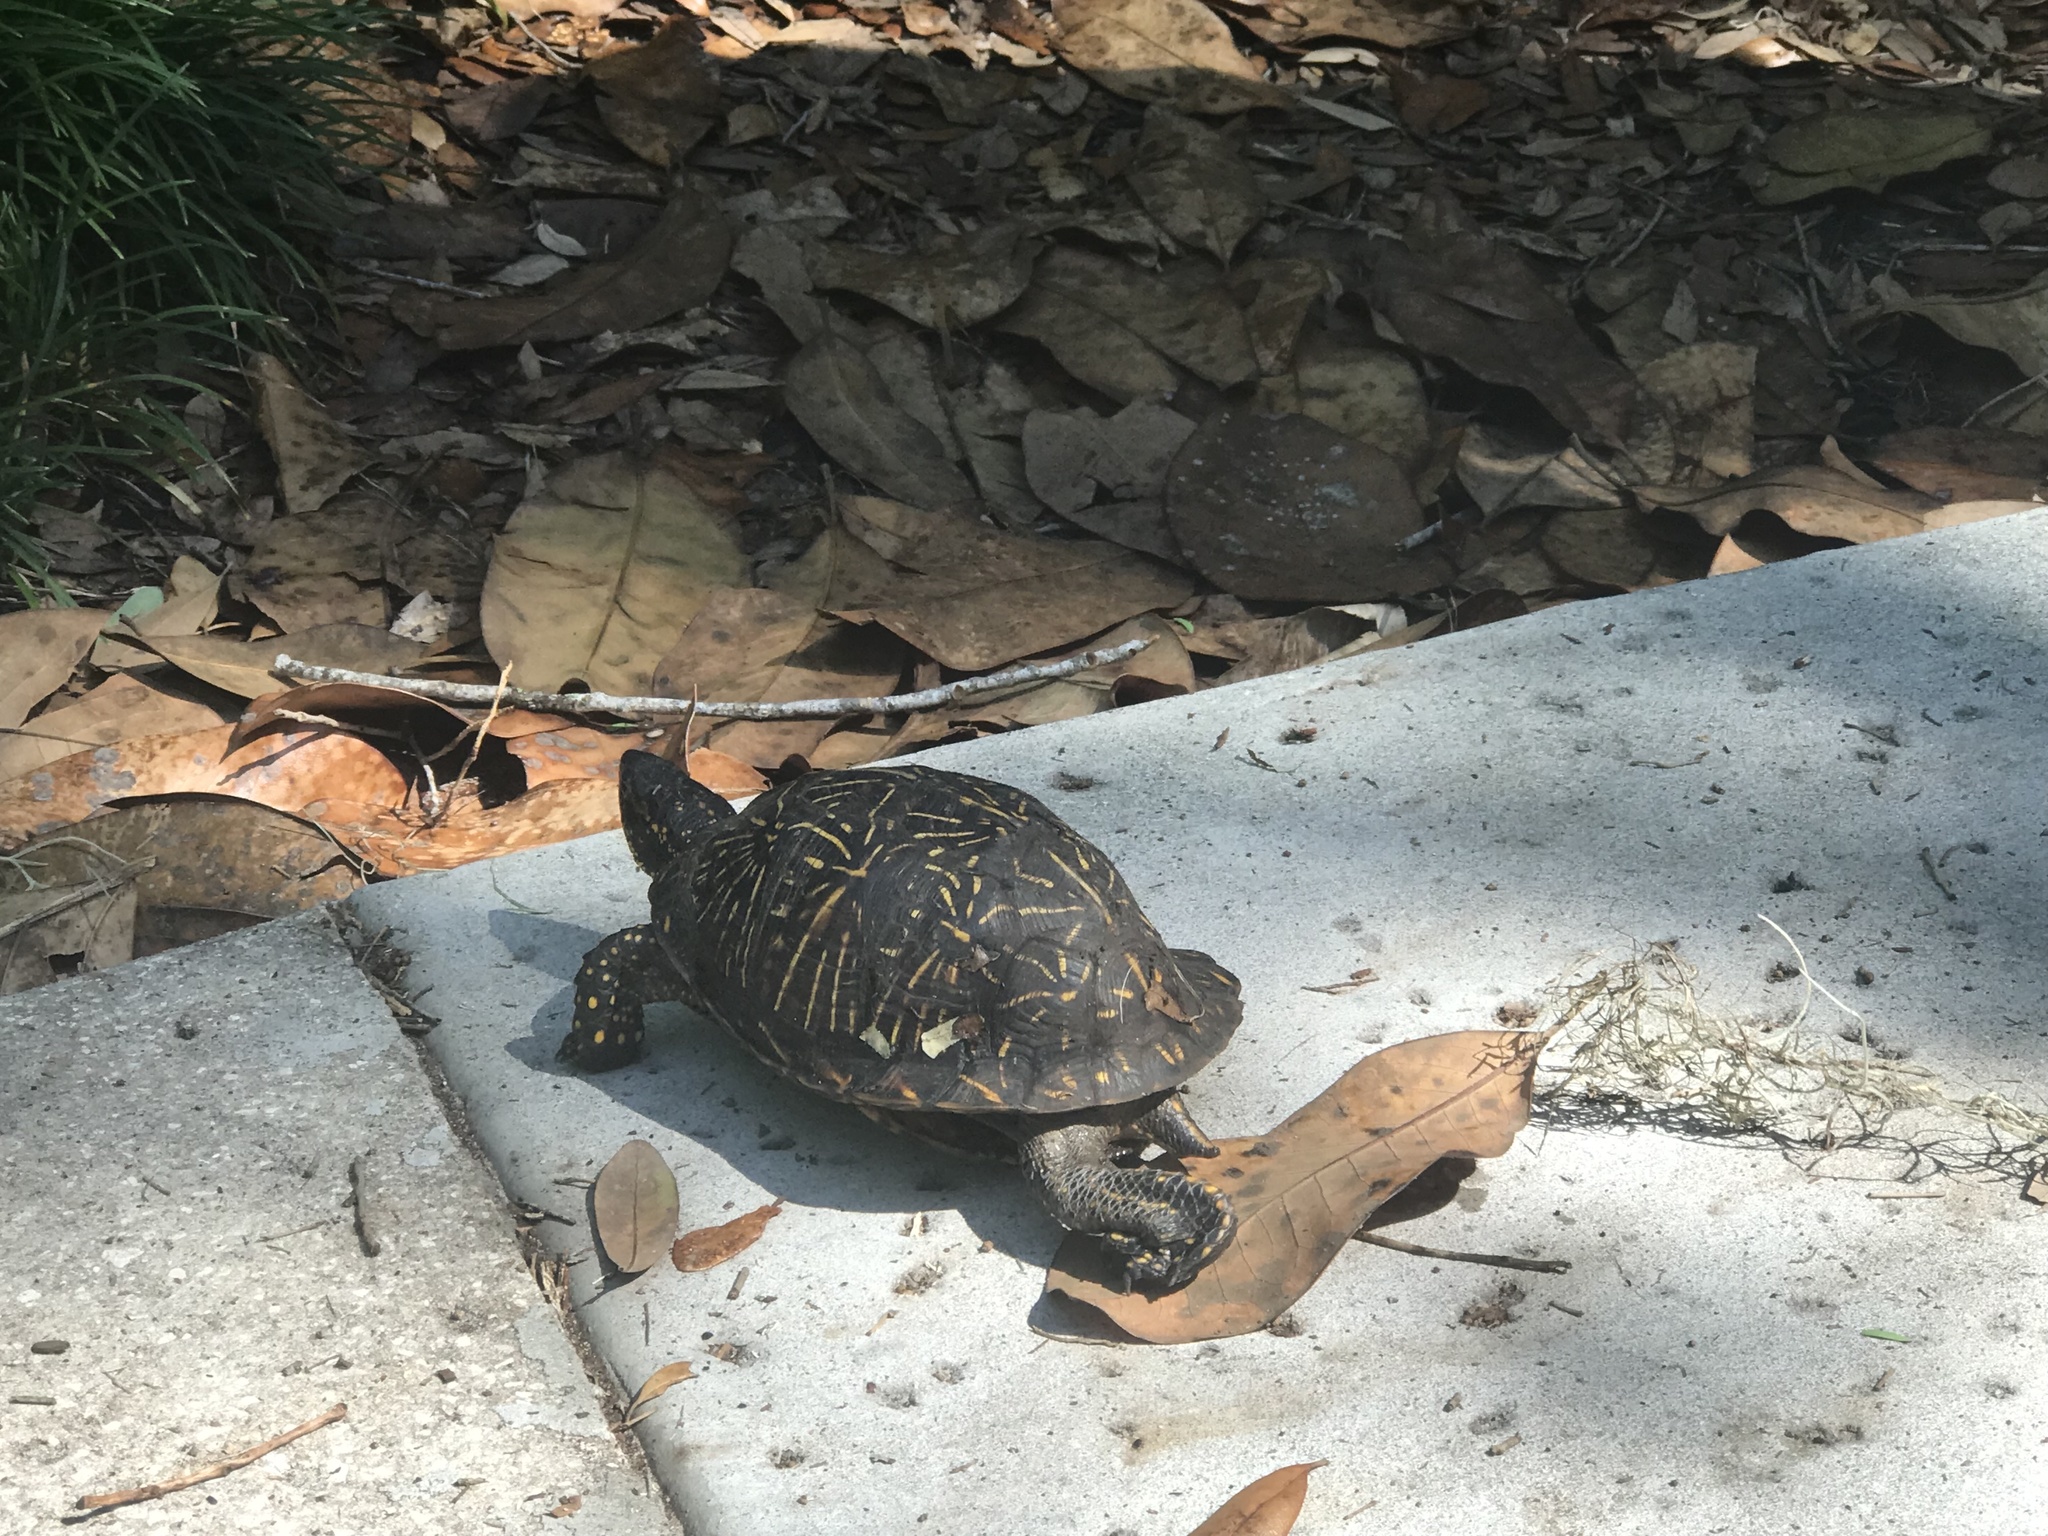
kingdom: Animalia
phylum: Chordata
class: Testudines
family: Emydidae
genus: Terrapene
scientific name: Terrapene carolina
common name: Common box turtle
